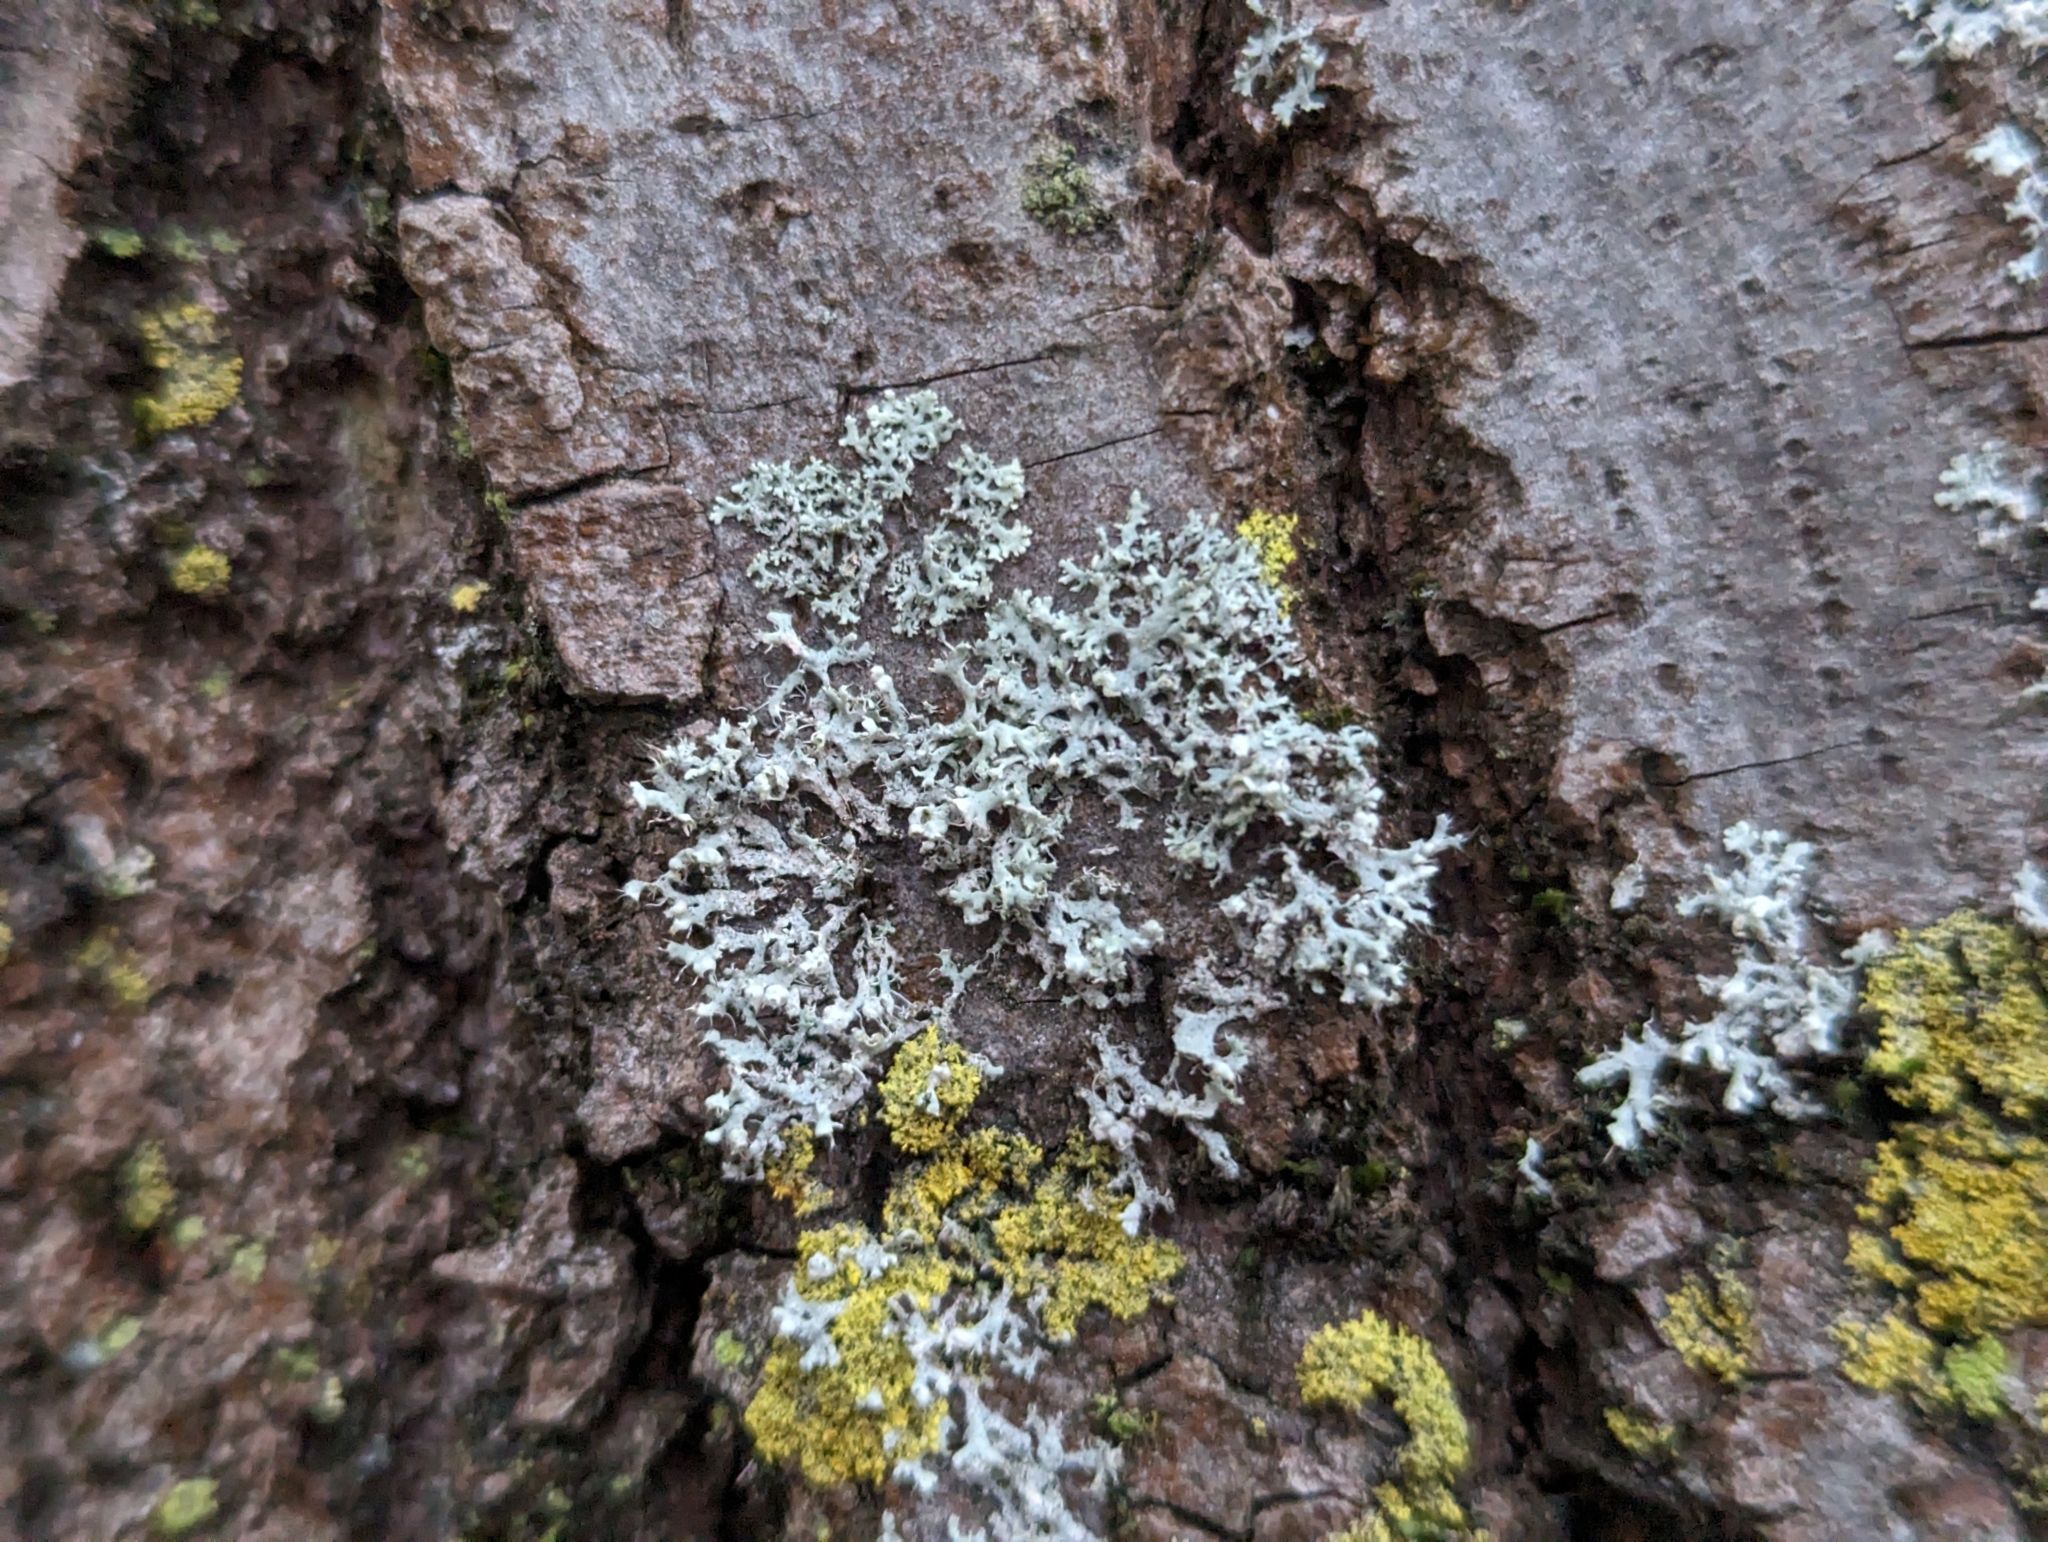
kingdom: Fungi
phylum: Ascomycota
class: Lecanoromycetes
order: Caliciales
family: Physciaceae
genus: Physcia
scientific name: Physcia adscendens
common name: Hooded rosette lichen
